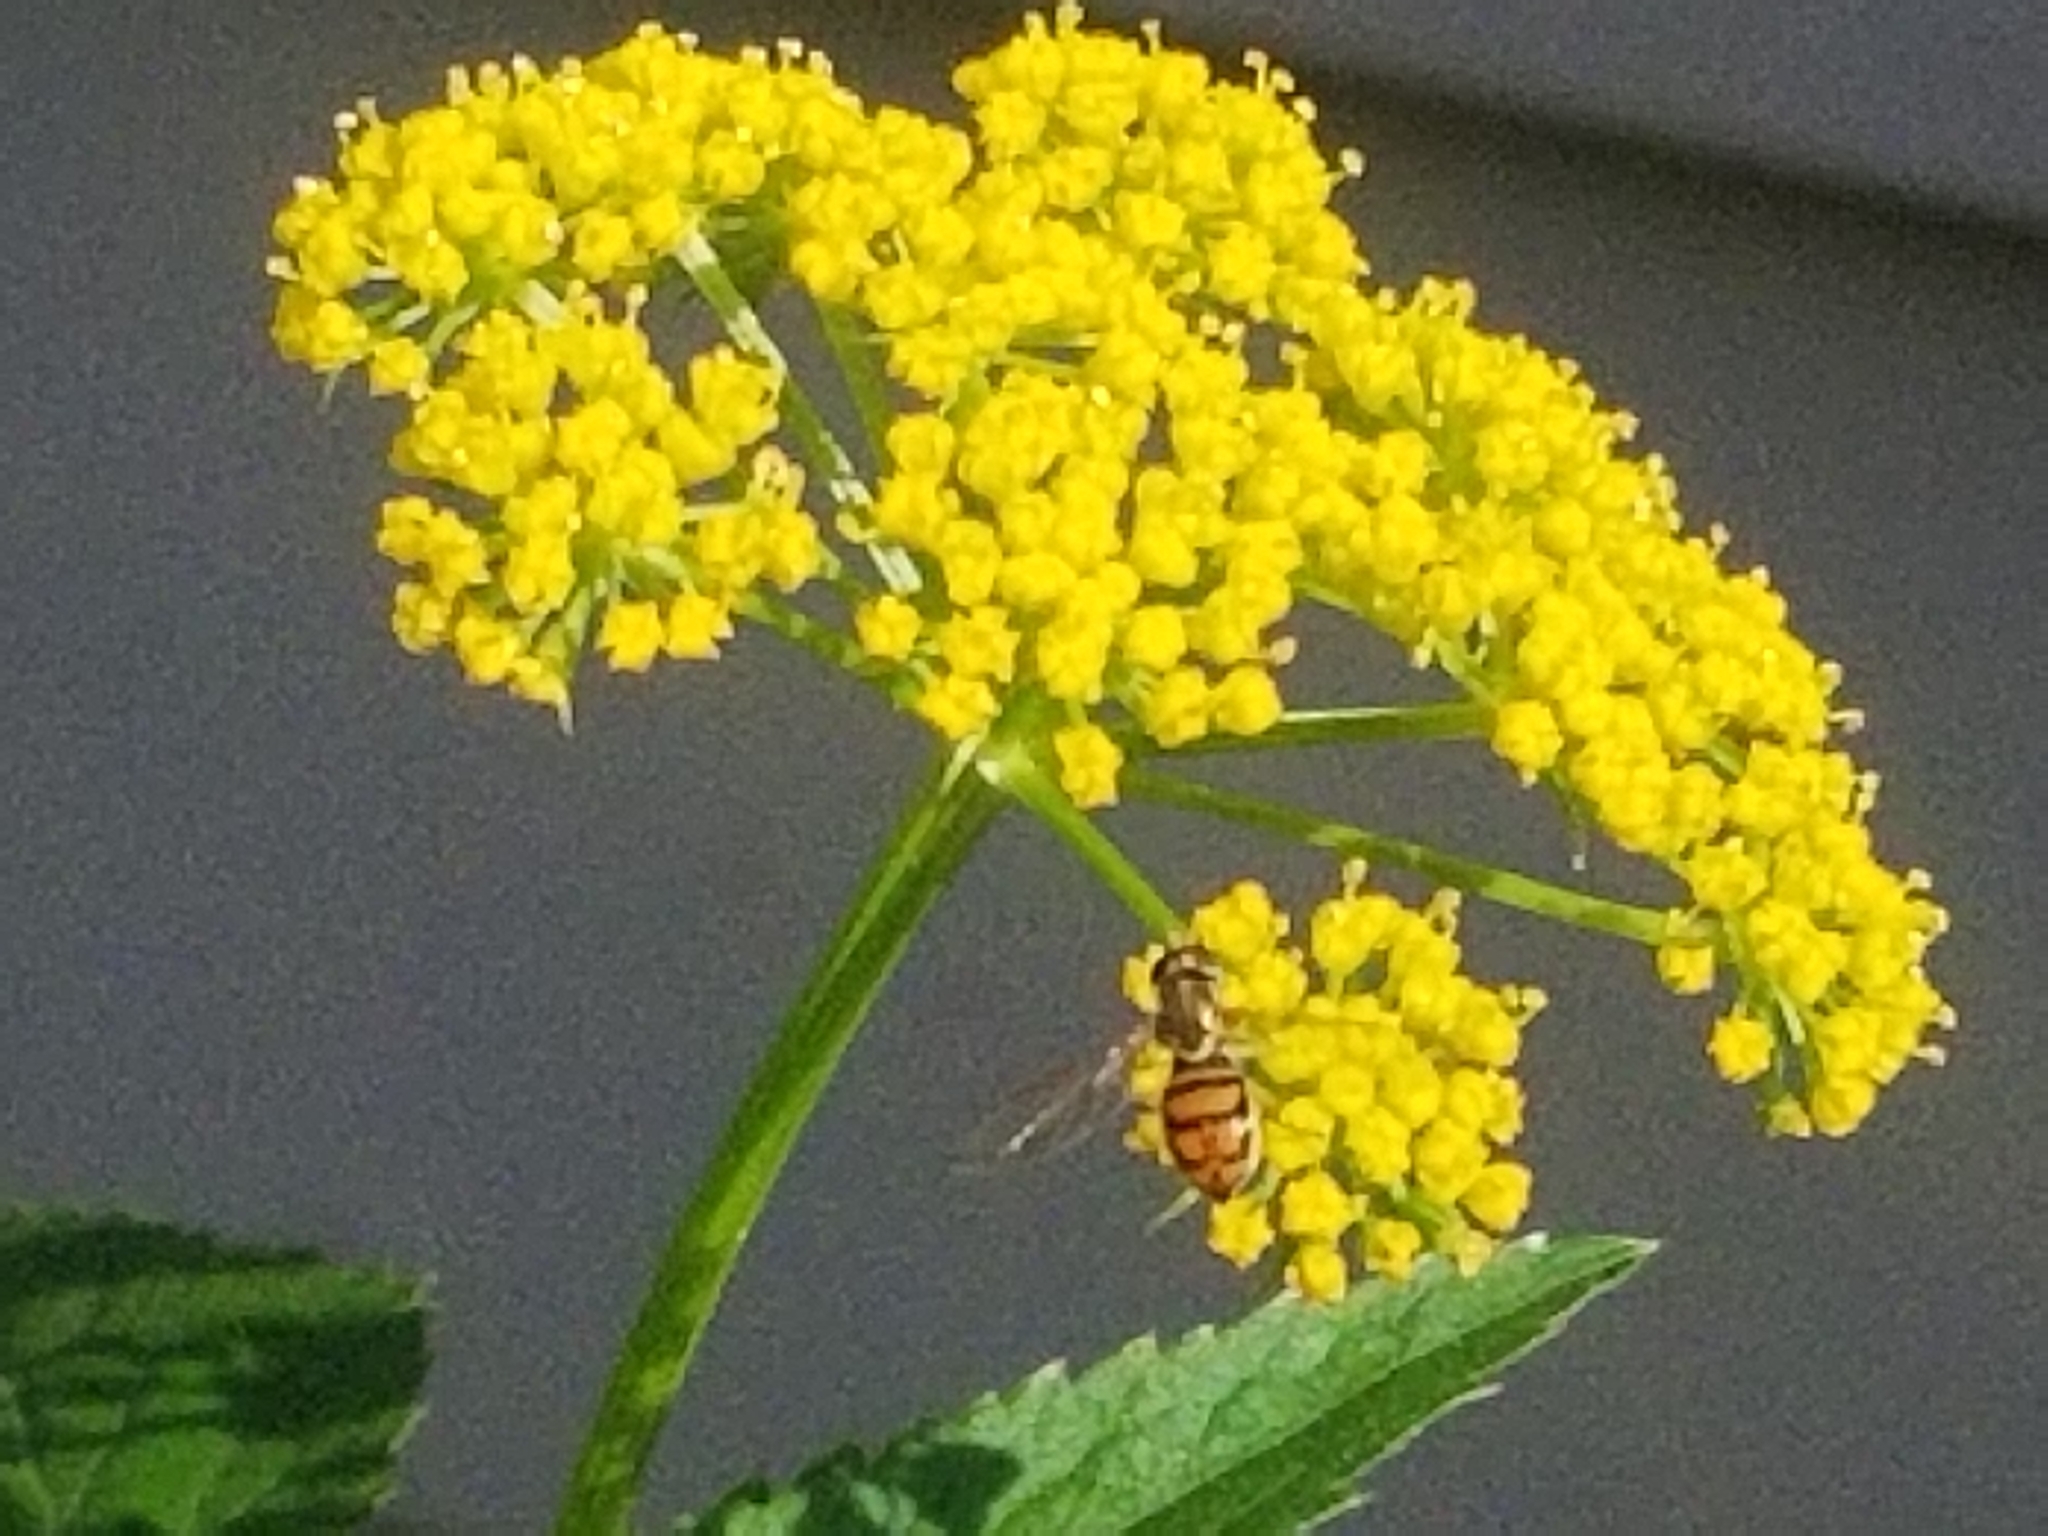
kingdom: Animalia
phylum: Arthropoda
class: Insecta
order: Diptera
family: Syrphidae
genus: Toxomerus
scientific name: Toxomerus marginatus
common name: Syrphid fly
